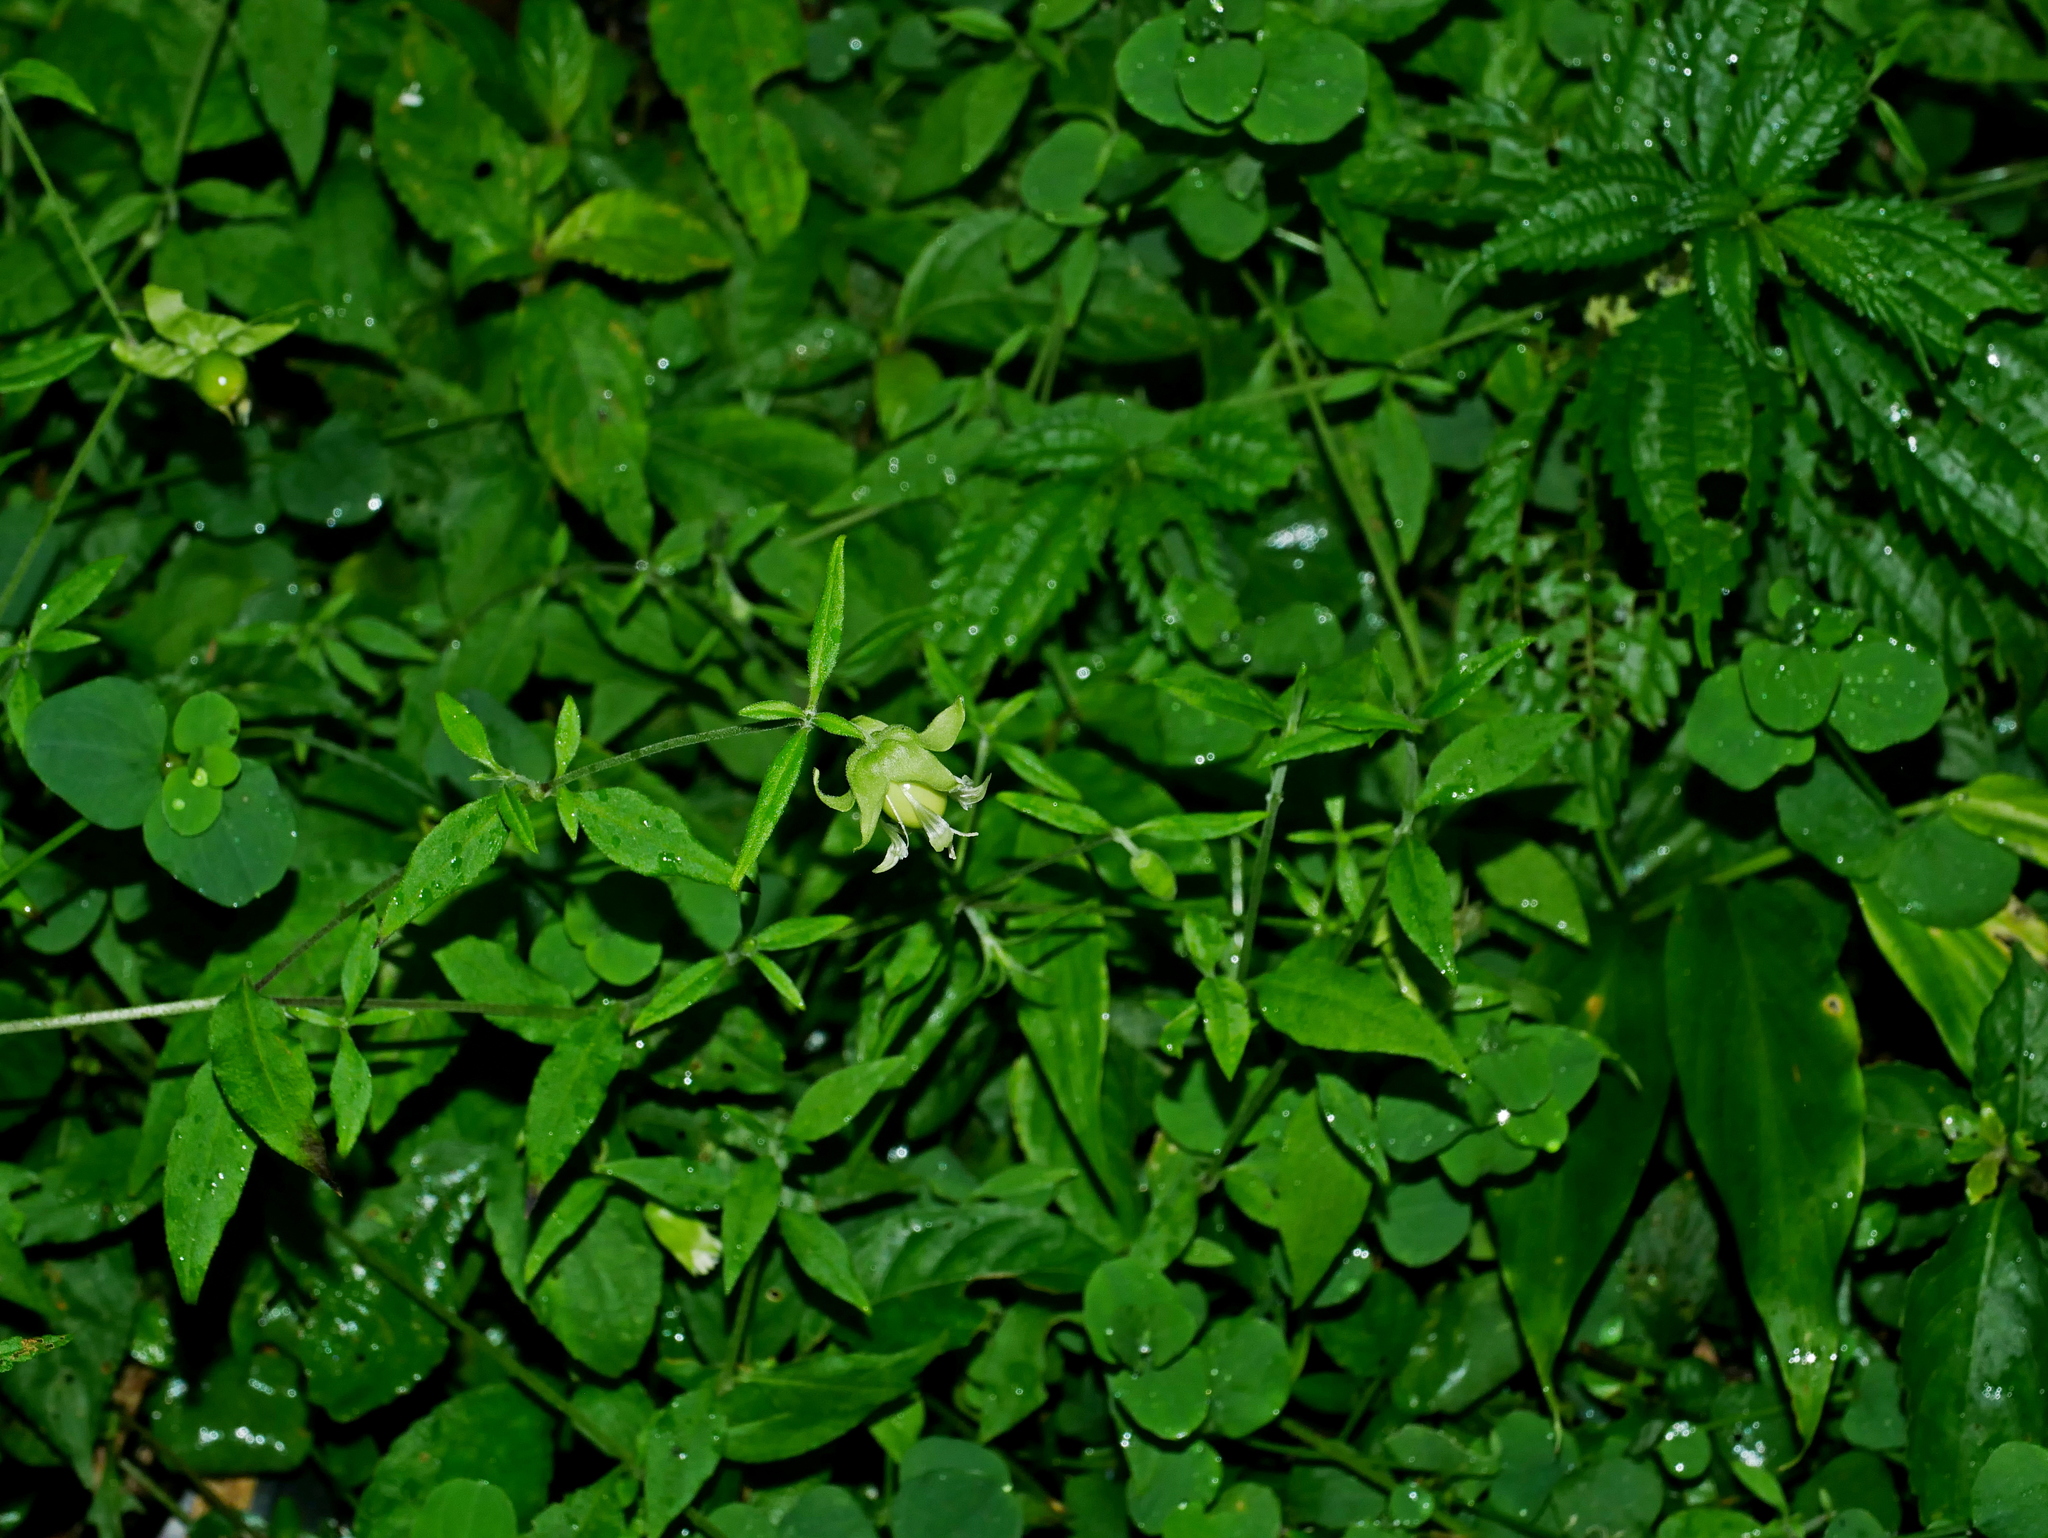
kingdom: Plantae
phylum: Tracheophyta
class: Magnoliopsida
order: Caryophyllales
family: Caryophyllaceae
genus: Silene
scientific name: Silene baccifera
